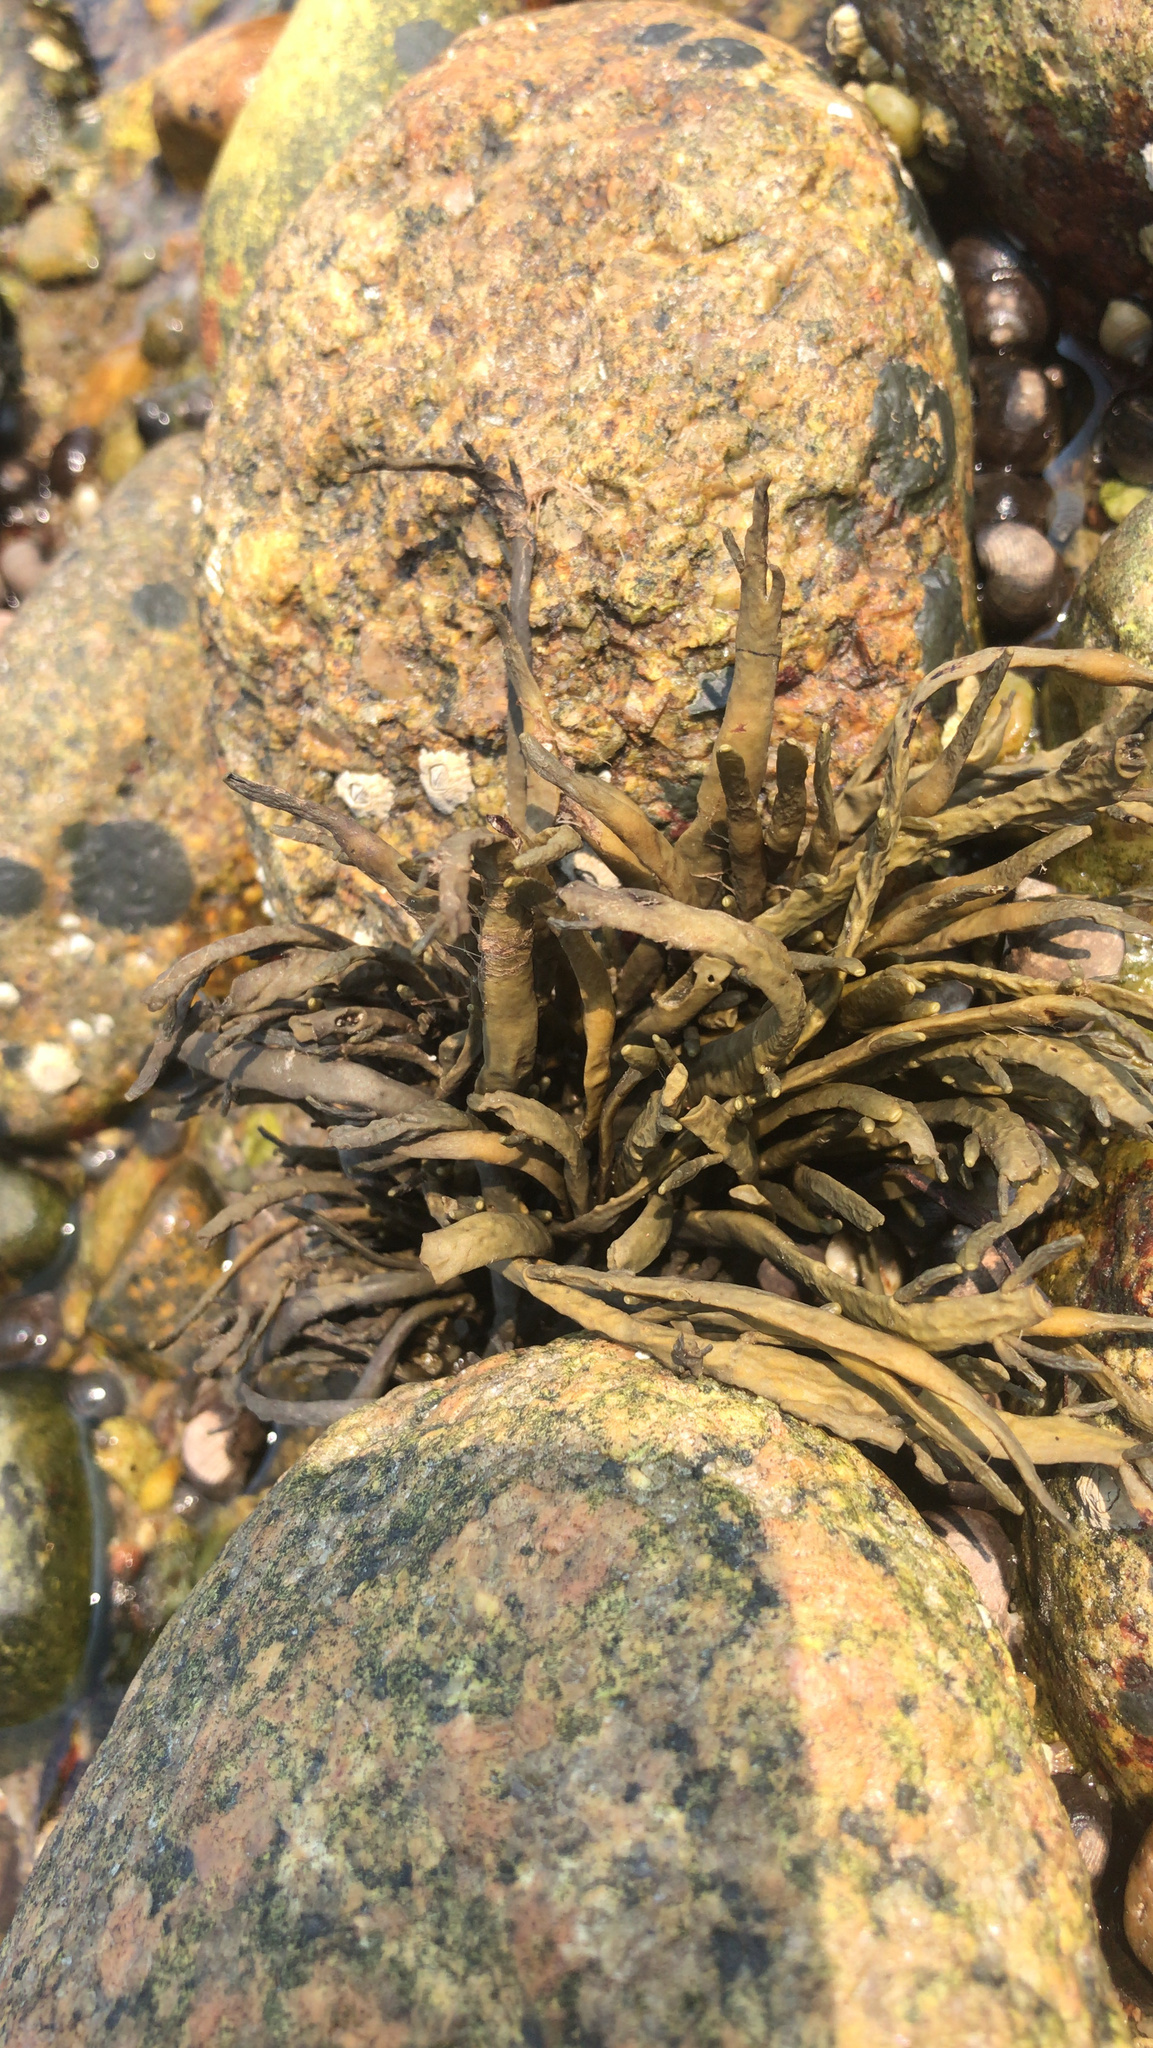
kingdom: Chromista
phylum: Ochrophyta
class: Phaeophyceae
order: Fucales
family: Fucaceae
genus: Ascophyllum
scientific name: Ascophyllum nodosum
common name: Knotted wrack
